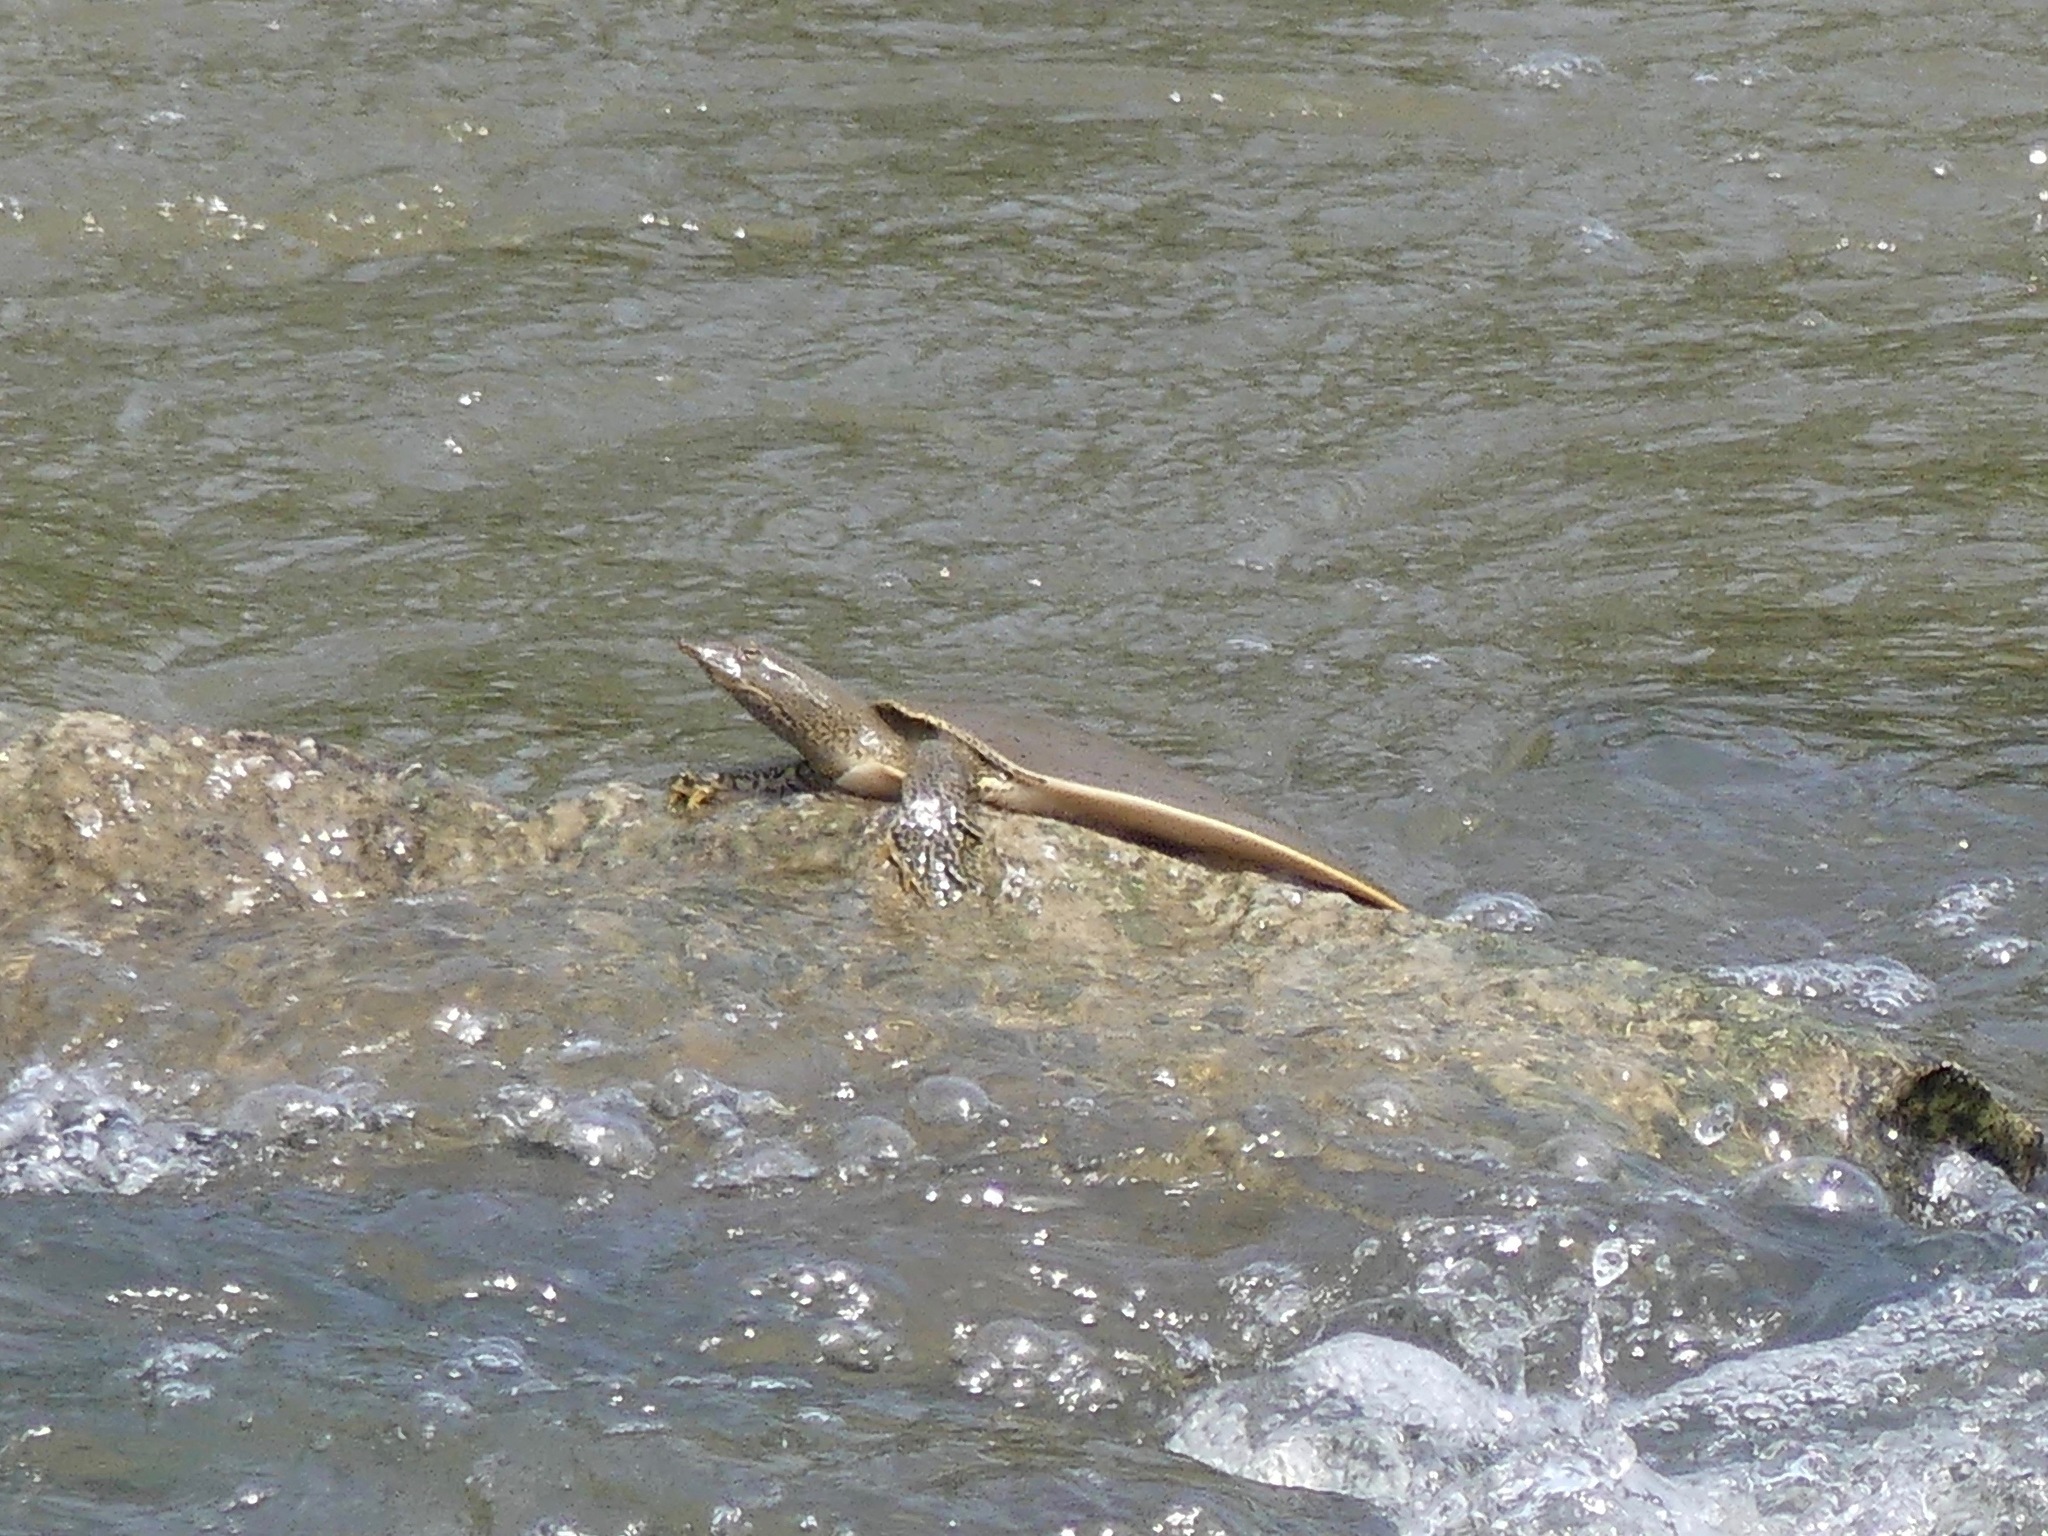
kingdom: Animalia
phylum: Chordata
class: Testudines
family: Trionychidae
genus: Apalone
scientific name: Apalone spinifera
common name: Spiny softshell turtle
